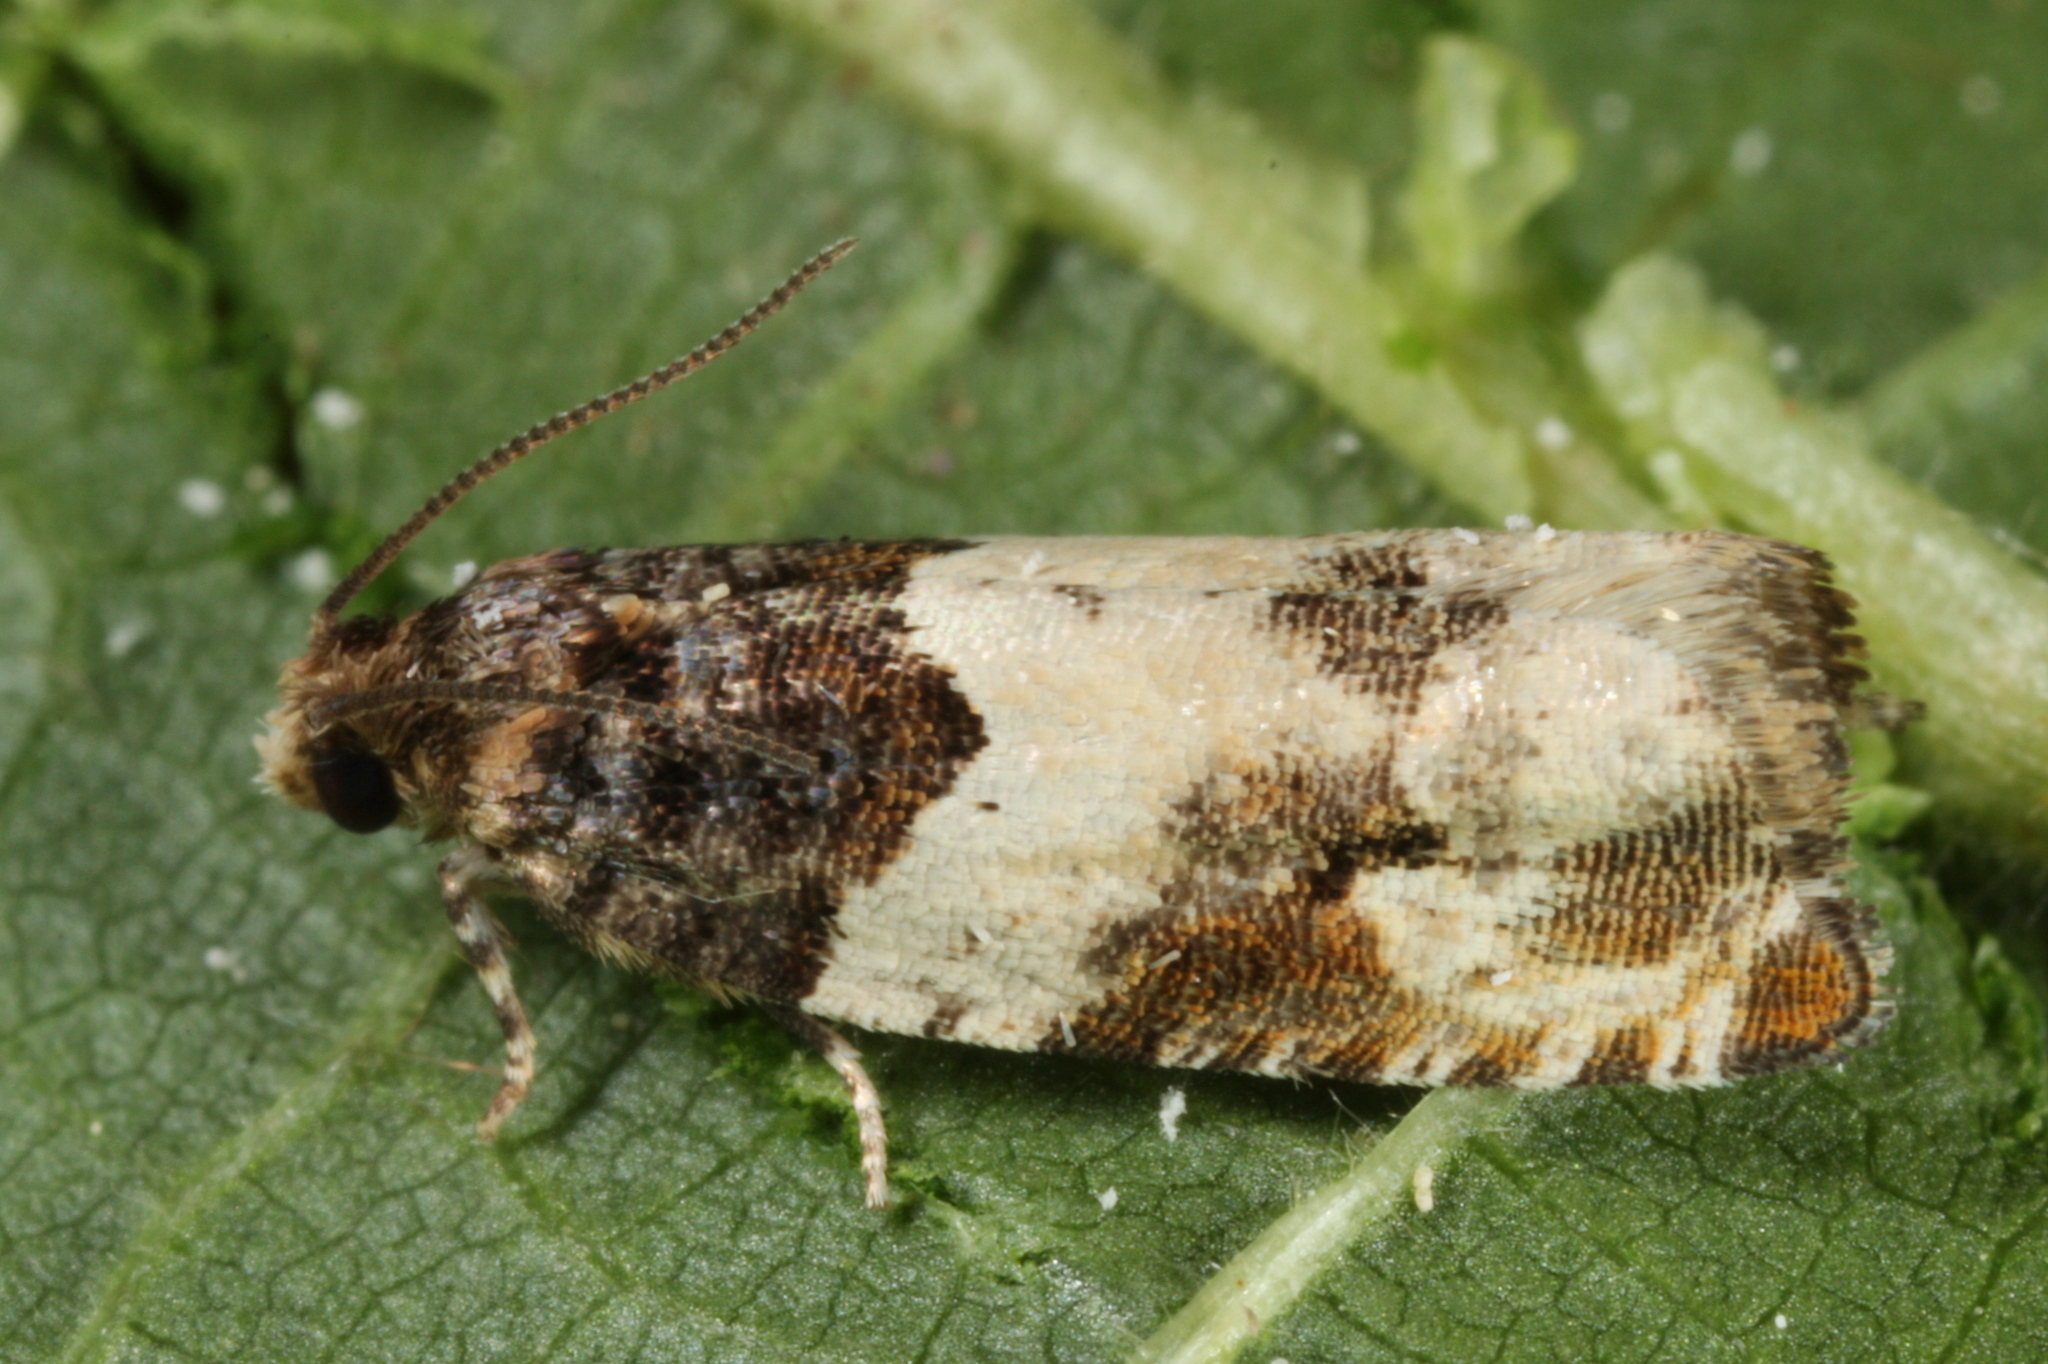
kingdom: Animalia
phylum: Arthropoda
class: Insecta
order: Lepidoptera
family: Tortricidae
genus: Gypsonoma
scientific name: Gypsonoma dealbana
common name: Common cloaked shoot
